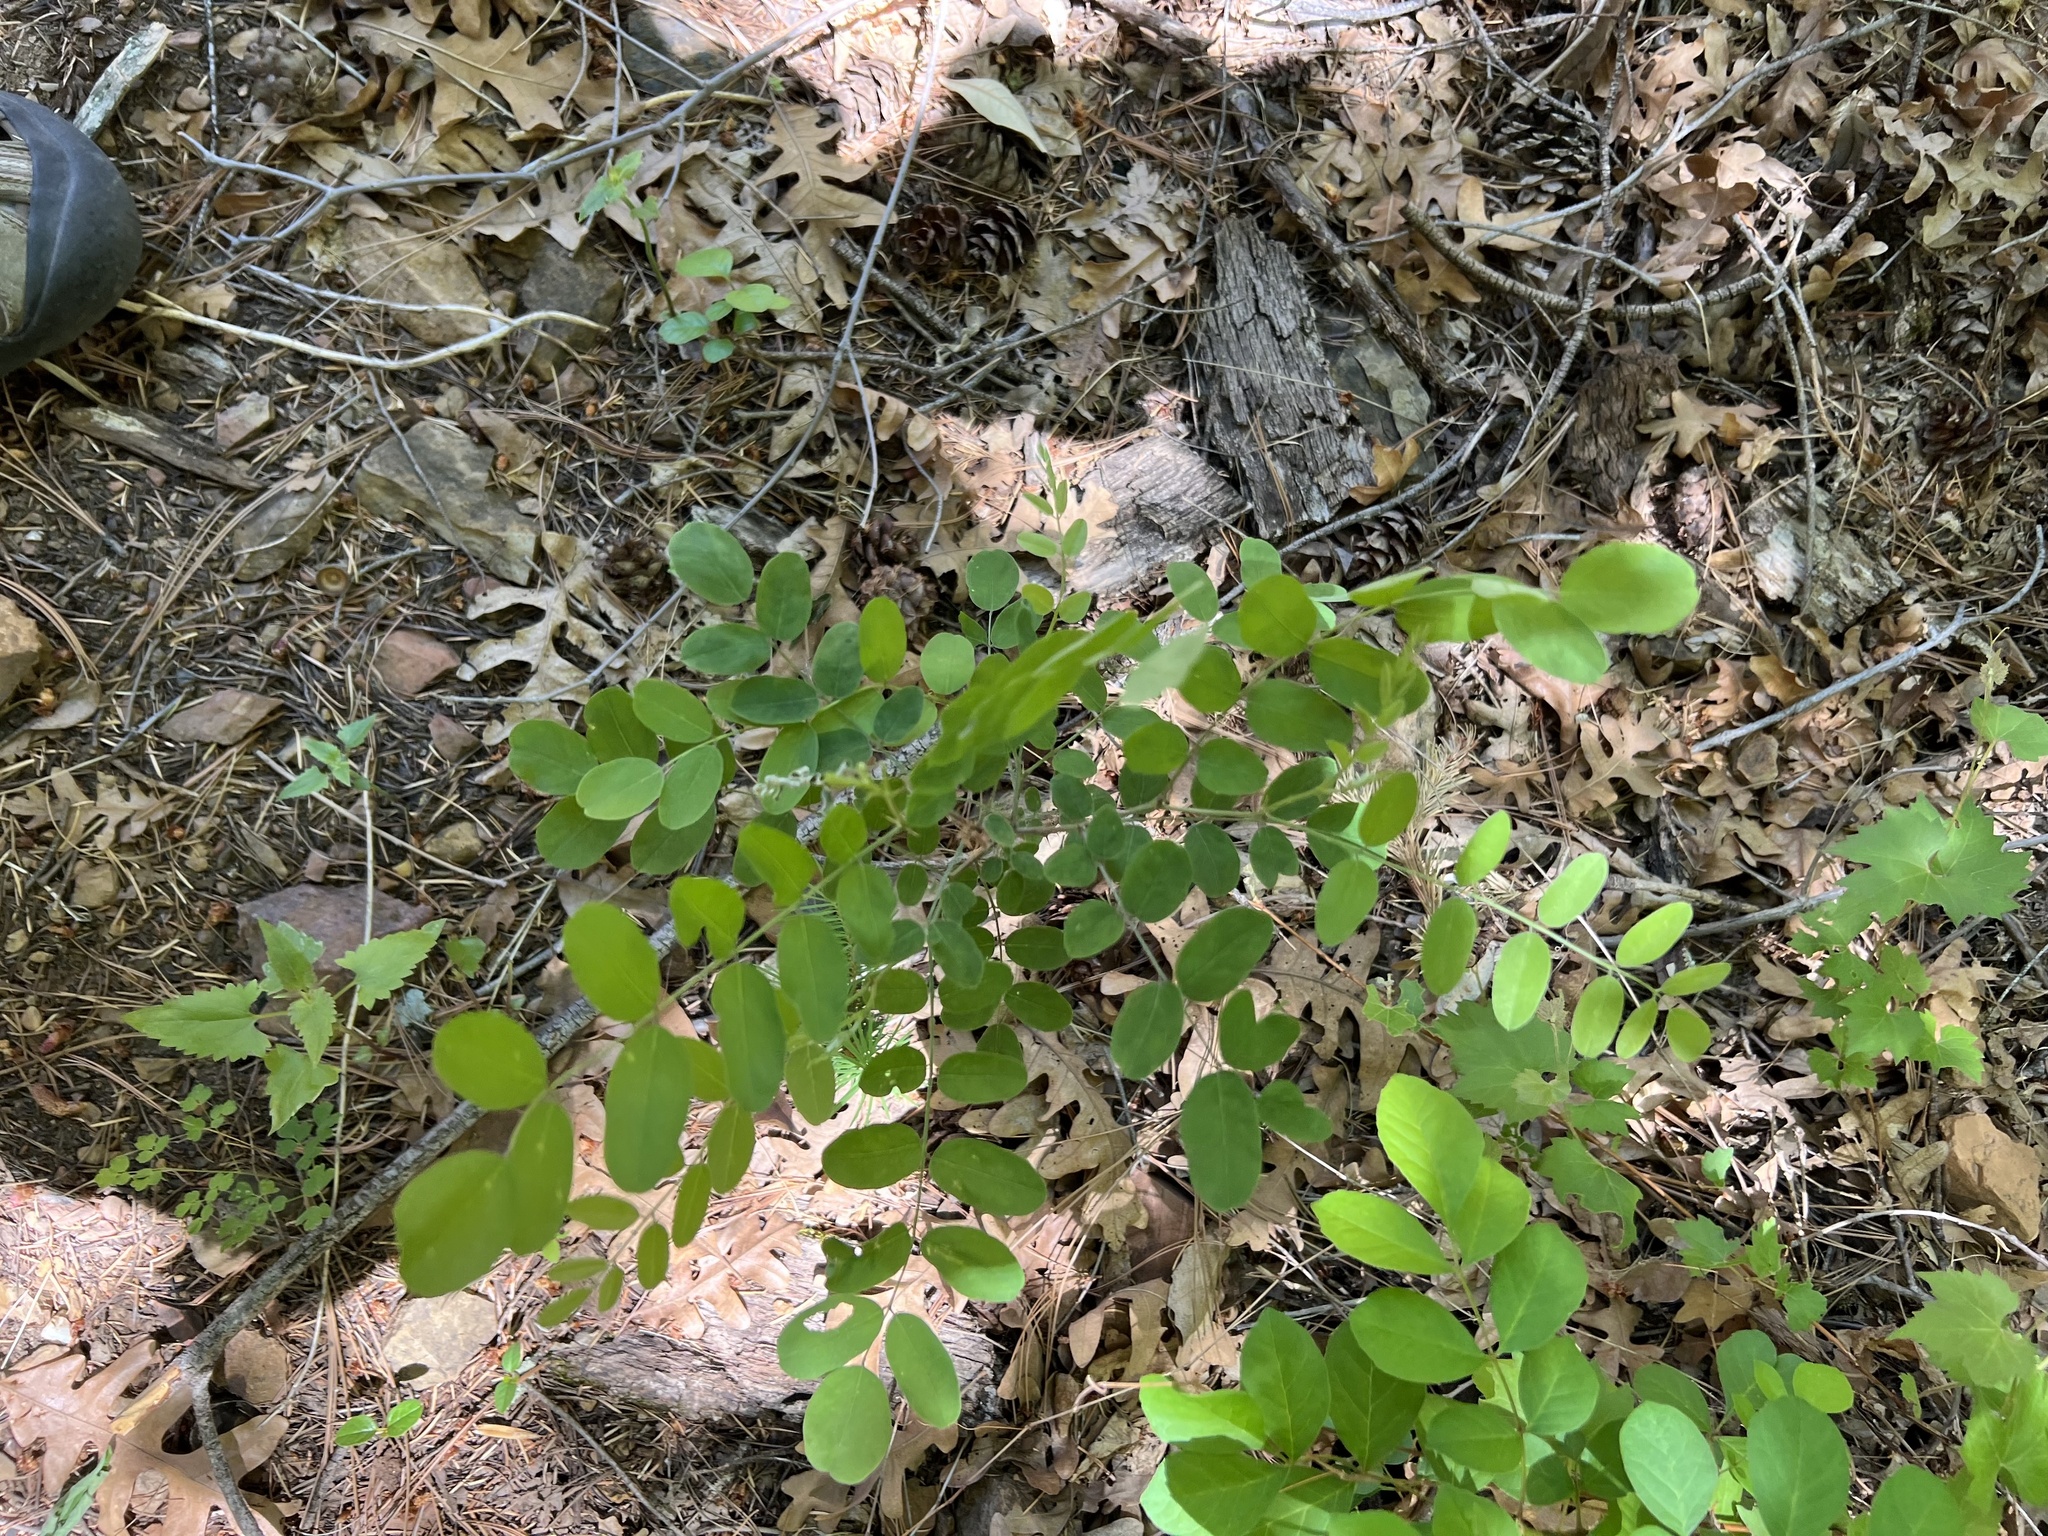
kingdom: Plantae
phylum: Tracheophyta
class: Magnoliopsida
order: Fabales
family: Fabaceae
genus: Robinia
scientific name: Robinia neomexicana
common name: New mexico locust
